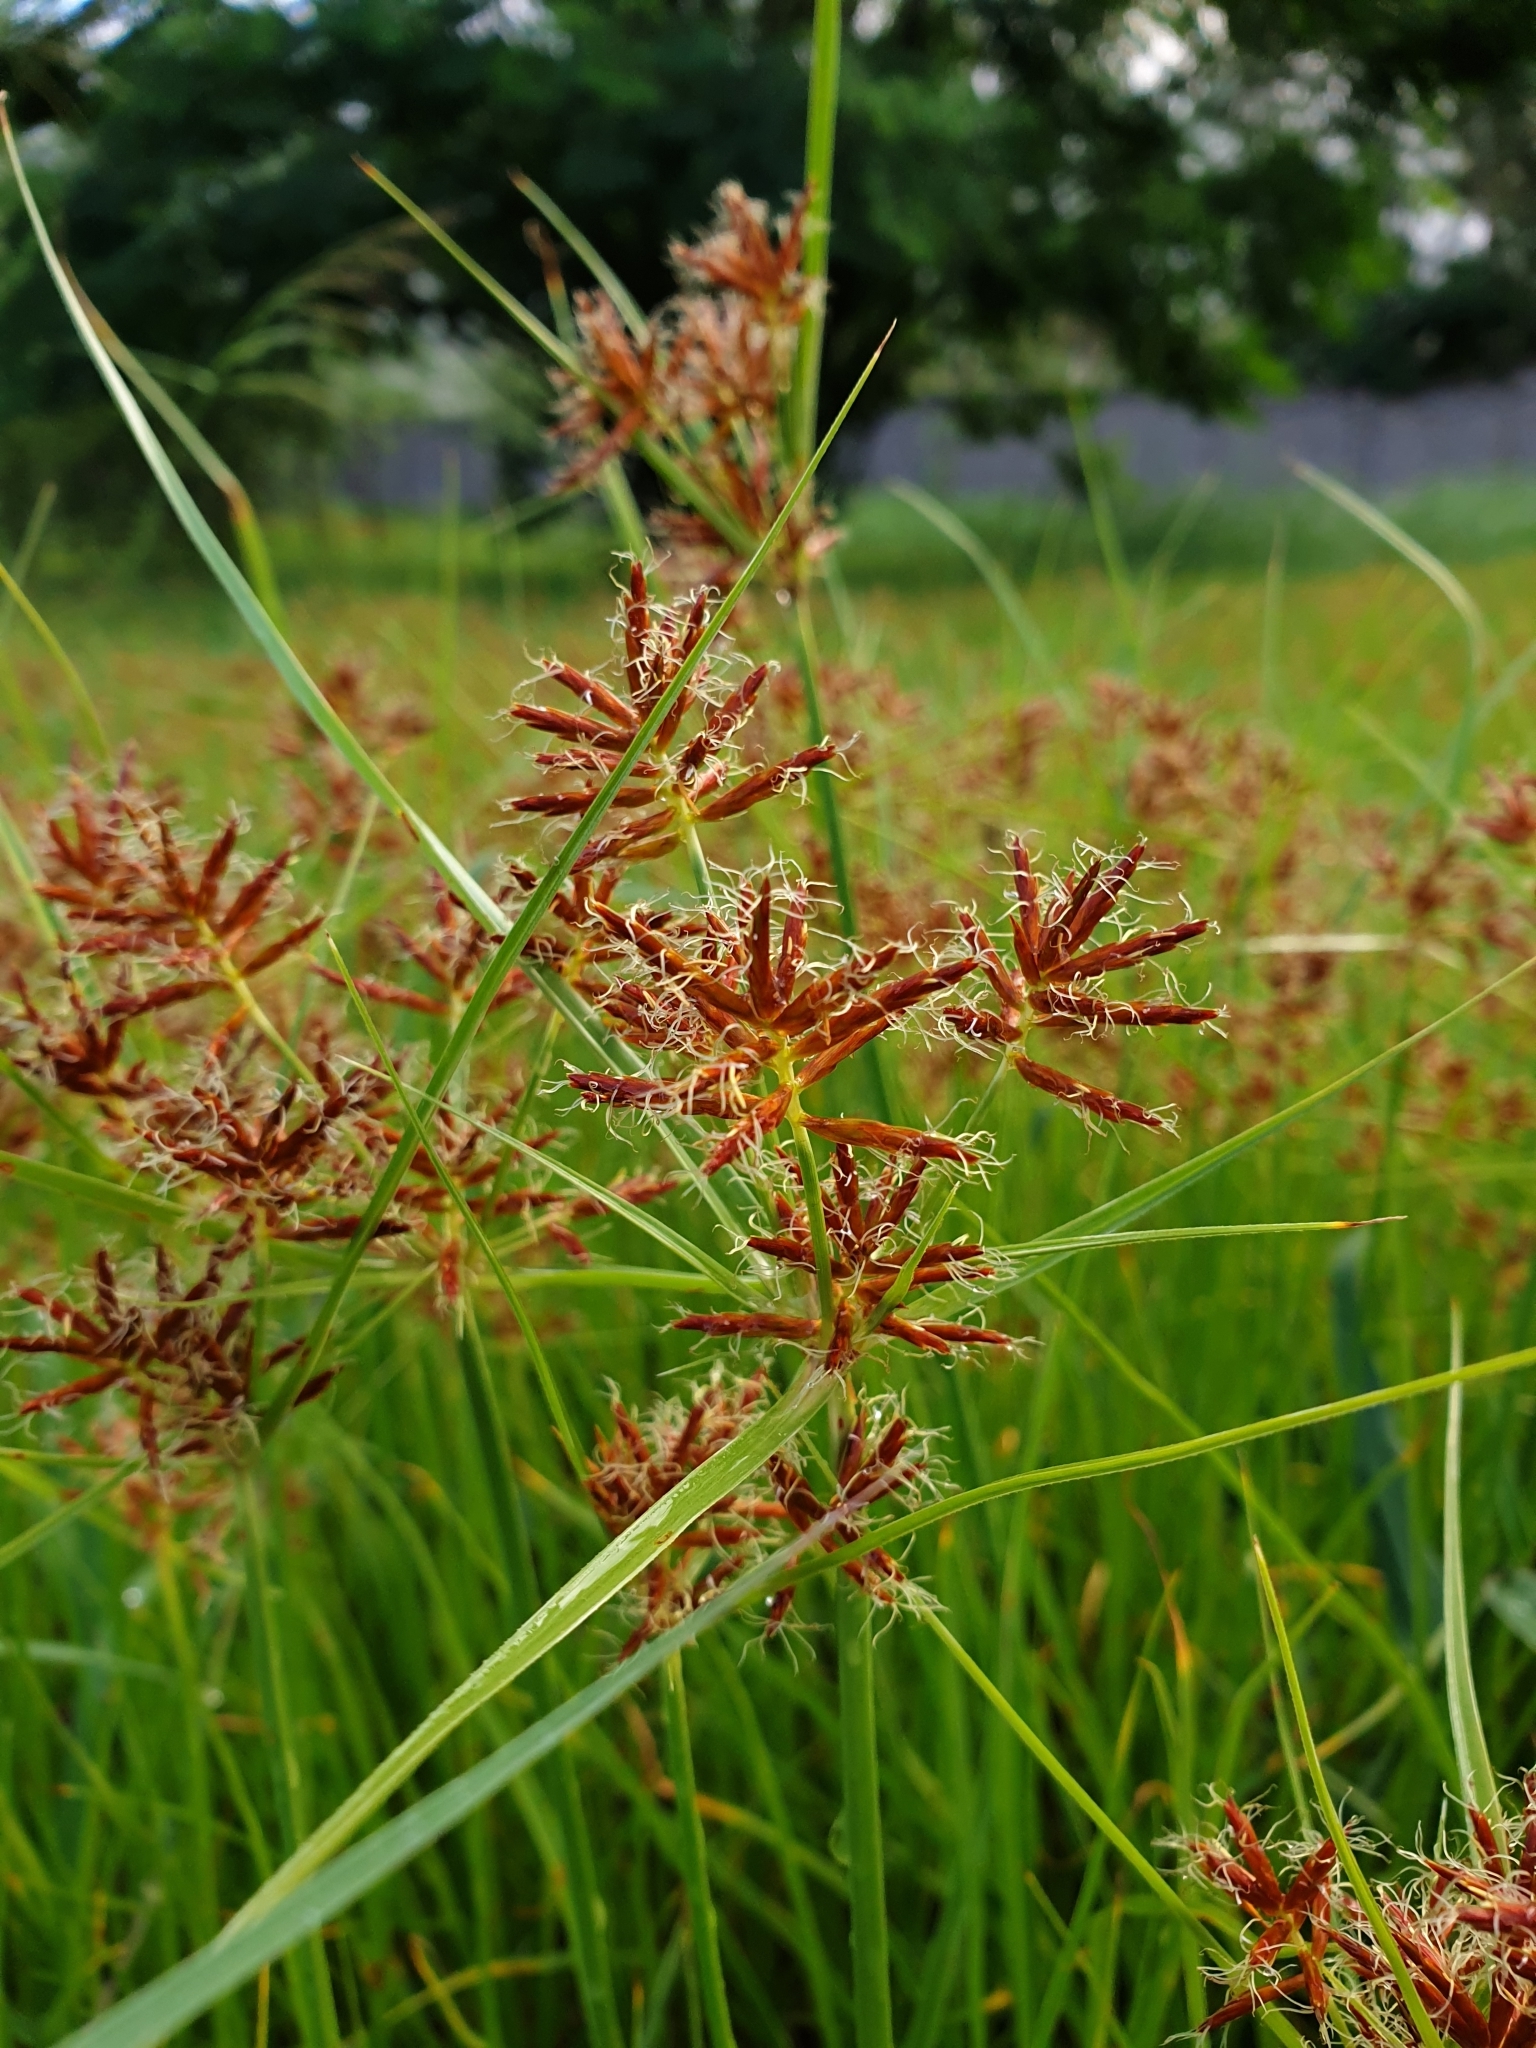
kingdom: Plantae
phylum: Tracheophyta
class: Liliopsida
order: Poales
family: Cyperaceae
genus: Cyperus
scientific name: Cyperus callistus
